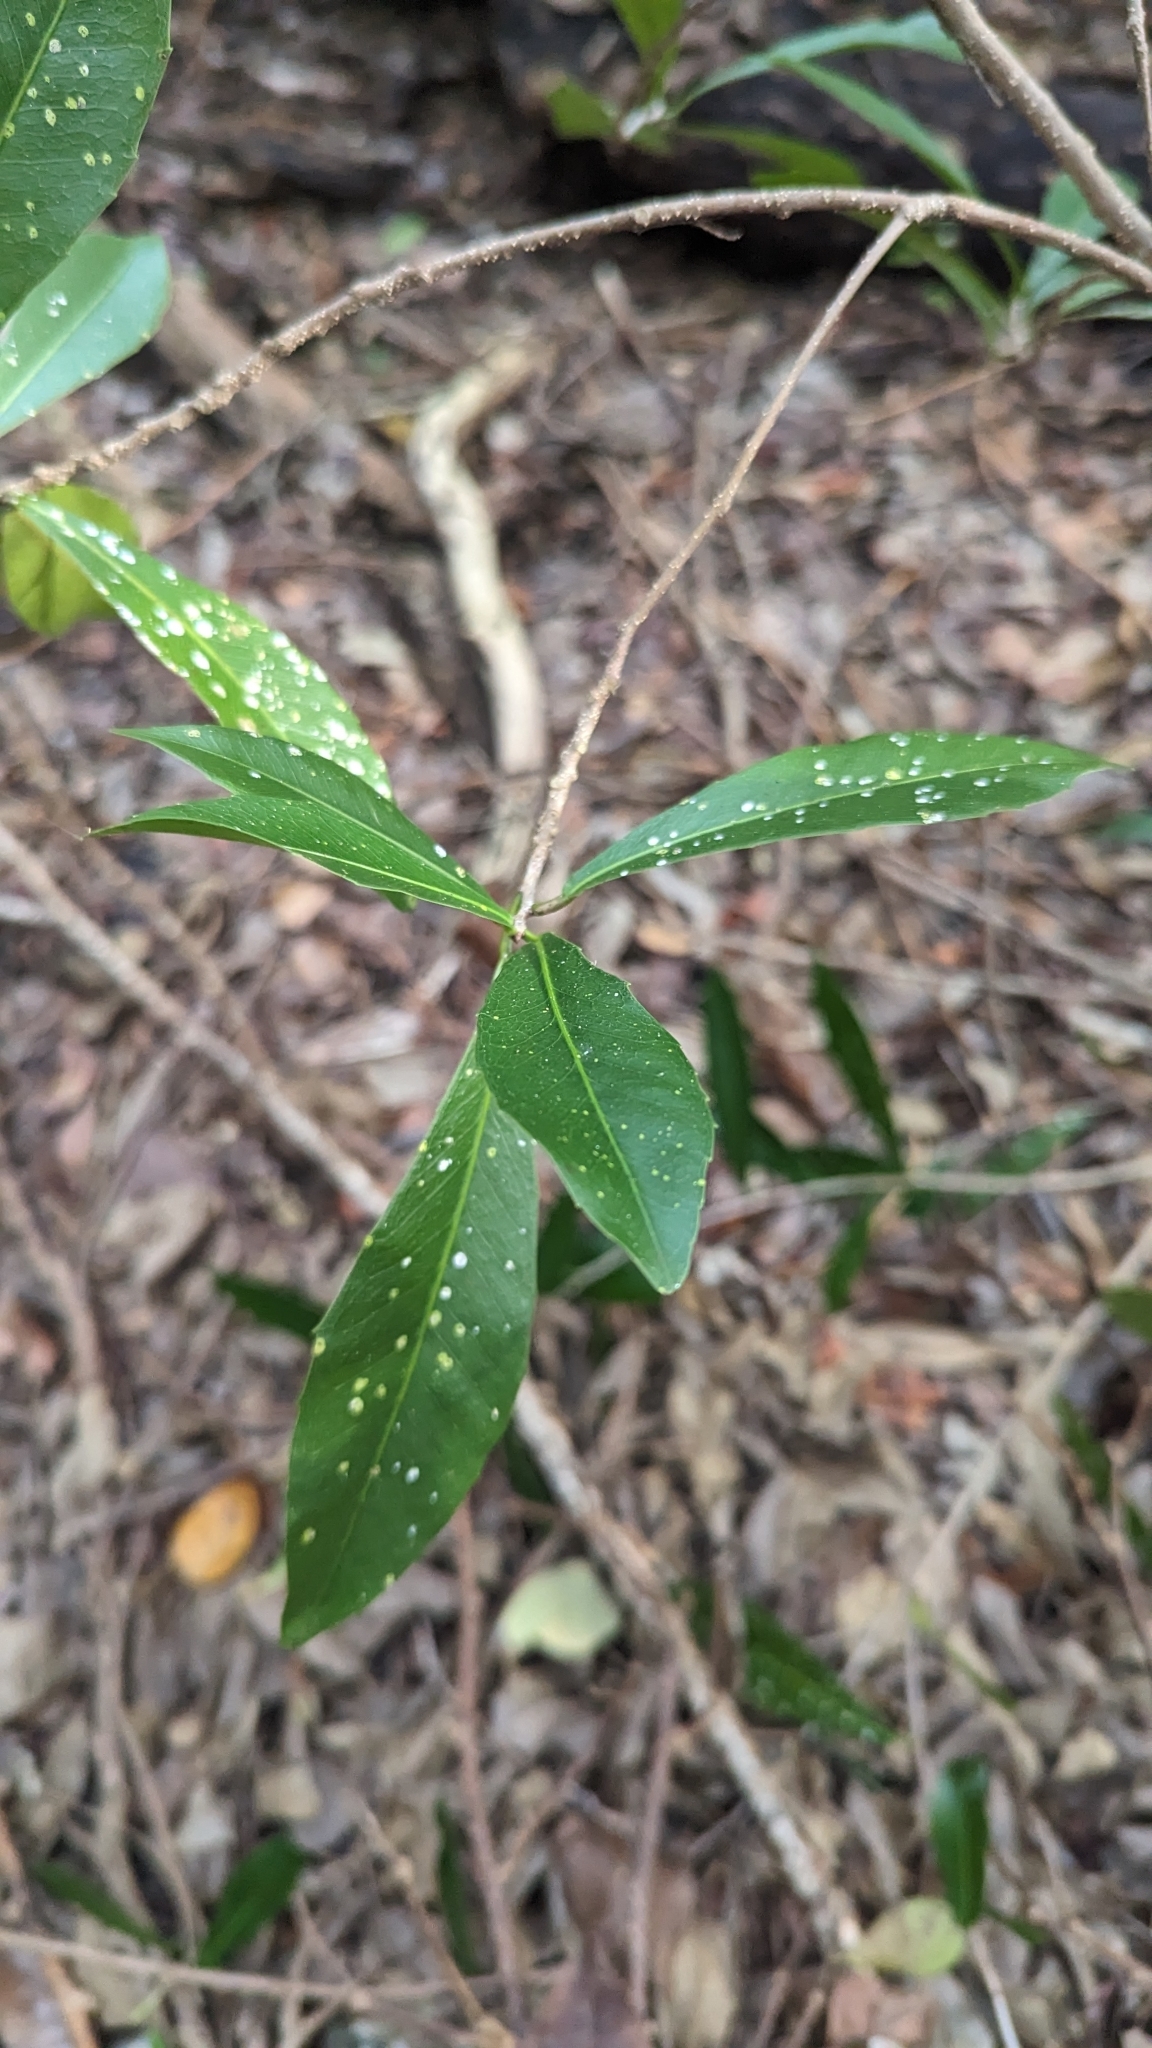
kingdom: Plantae
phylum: Tracheophyta
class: Magnoliopsida
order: Malpighiales
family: Euphorbiaceae
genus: Gymnanthes
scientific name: Gymnanthes lucida
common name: Oysterwood
